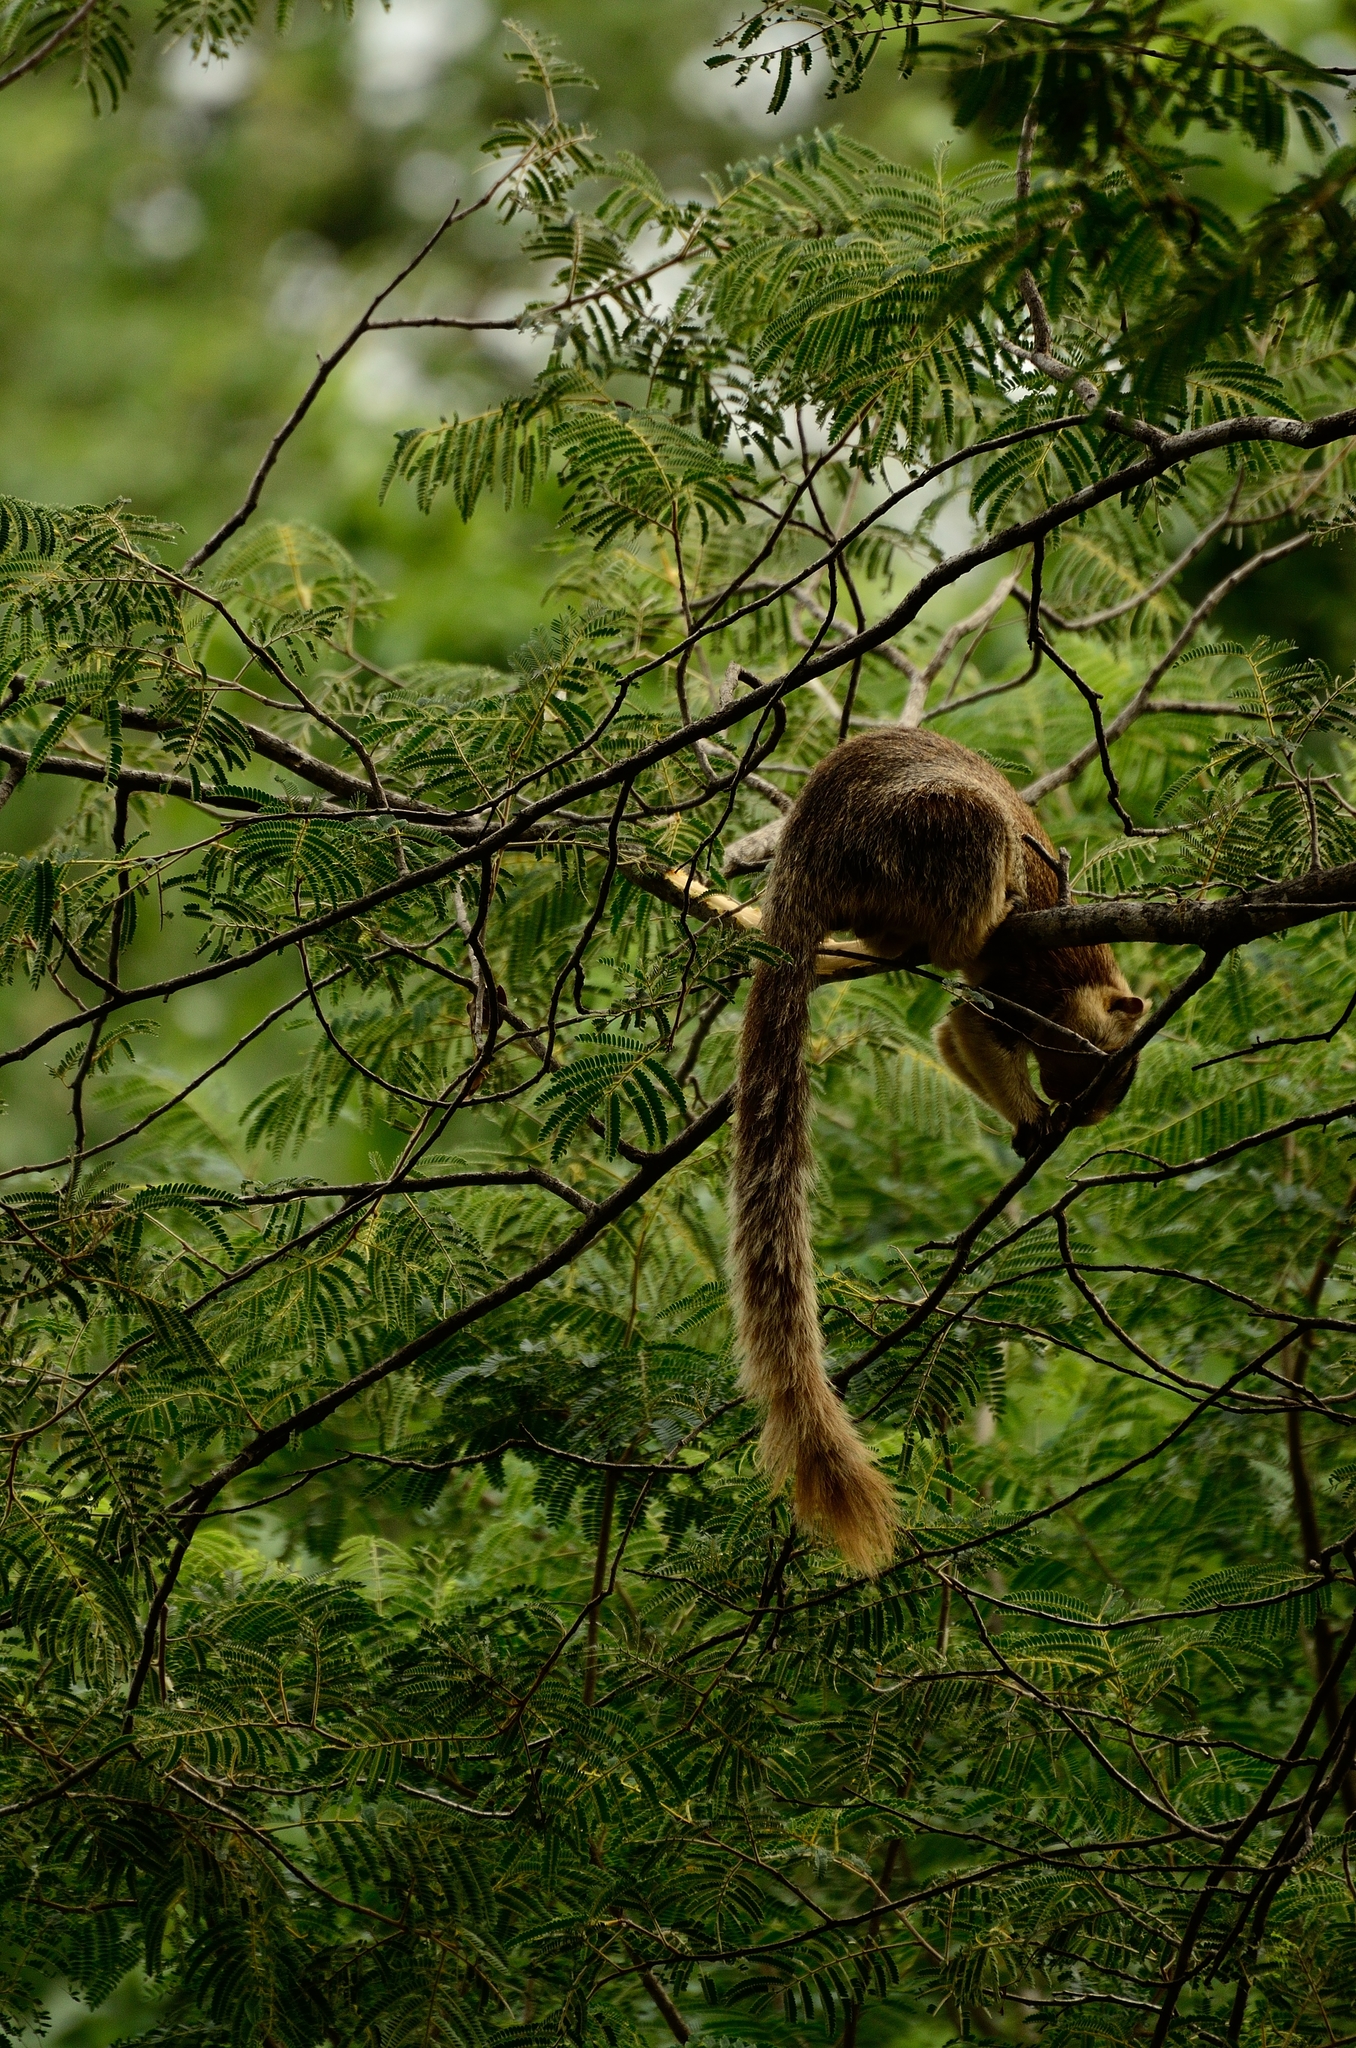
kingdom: Animalia
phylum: Chordata
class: Mammalia
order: Rodentia
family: Sciuridae
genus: Ratufa
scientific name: Ratufa macroura
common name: Sri lankan giant squirrel
